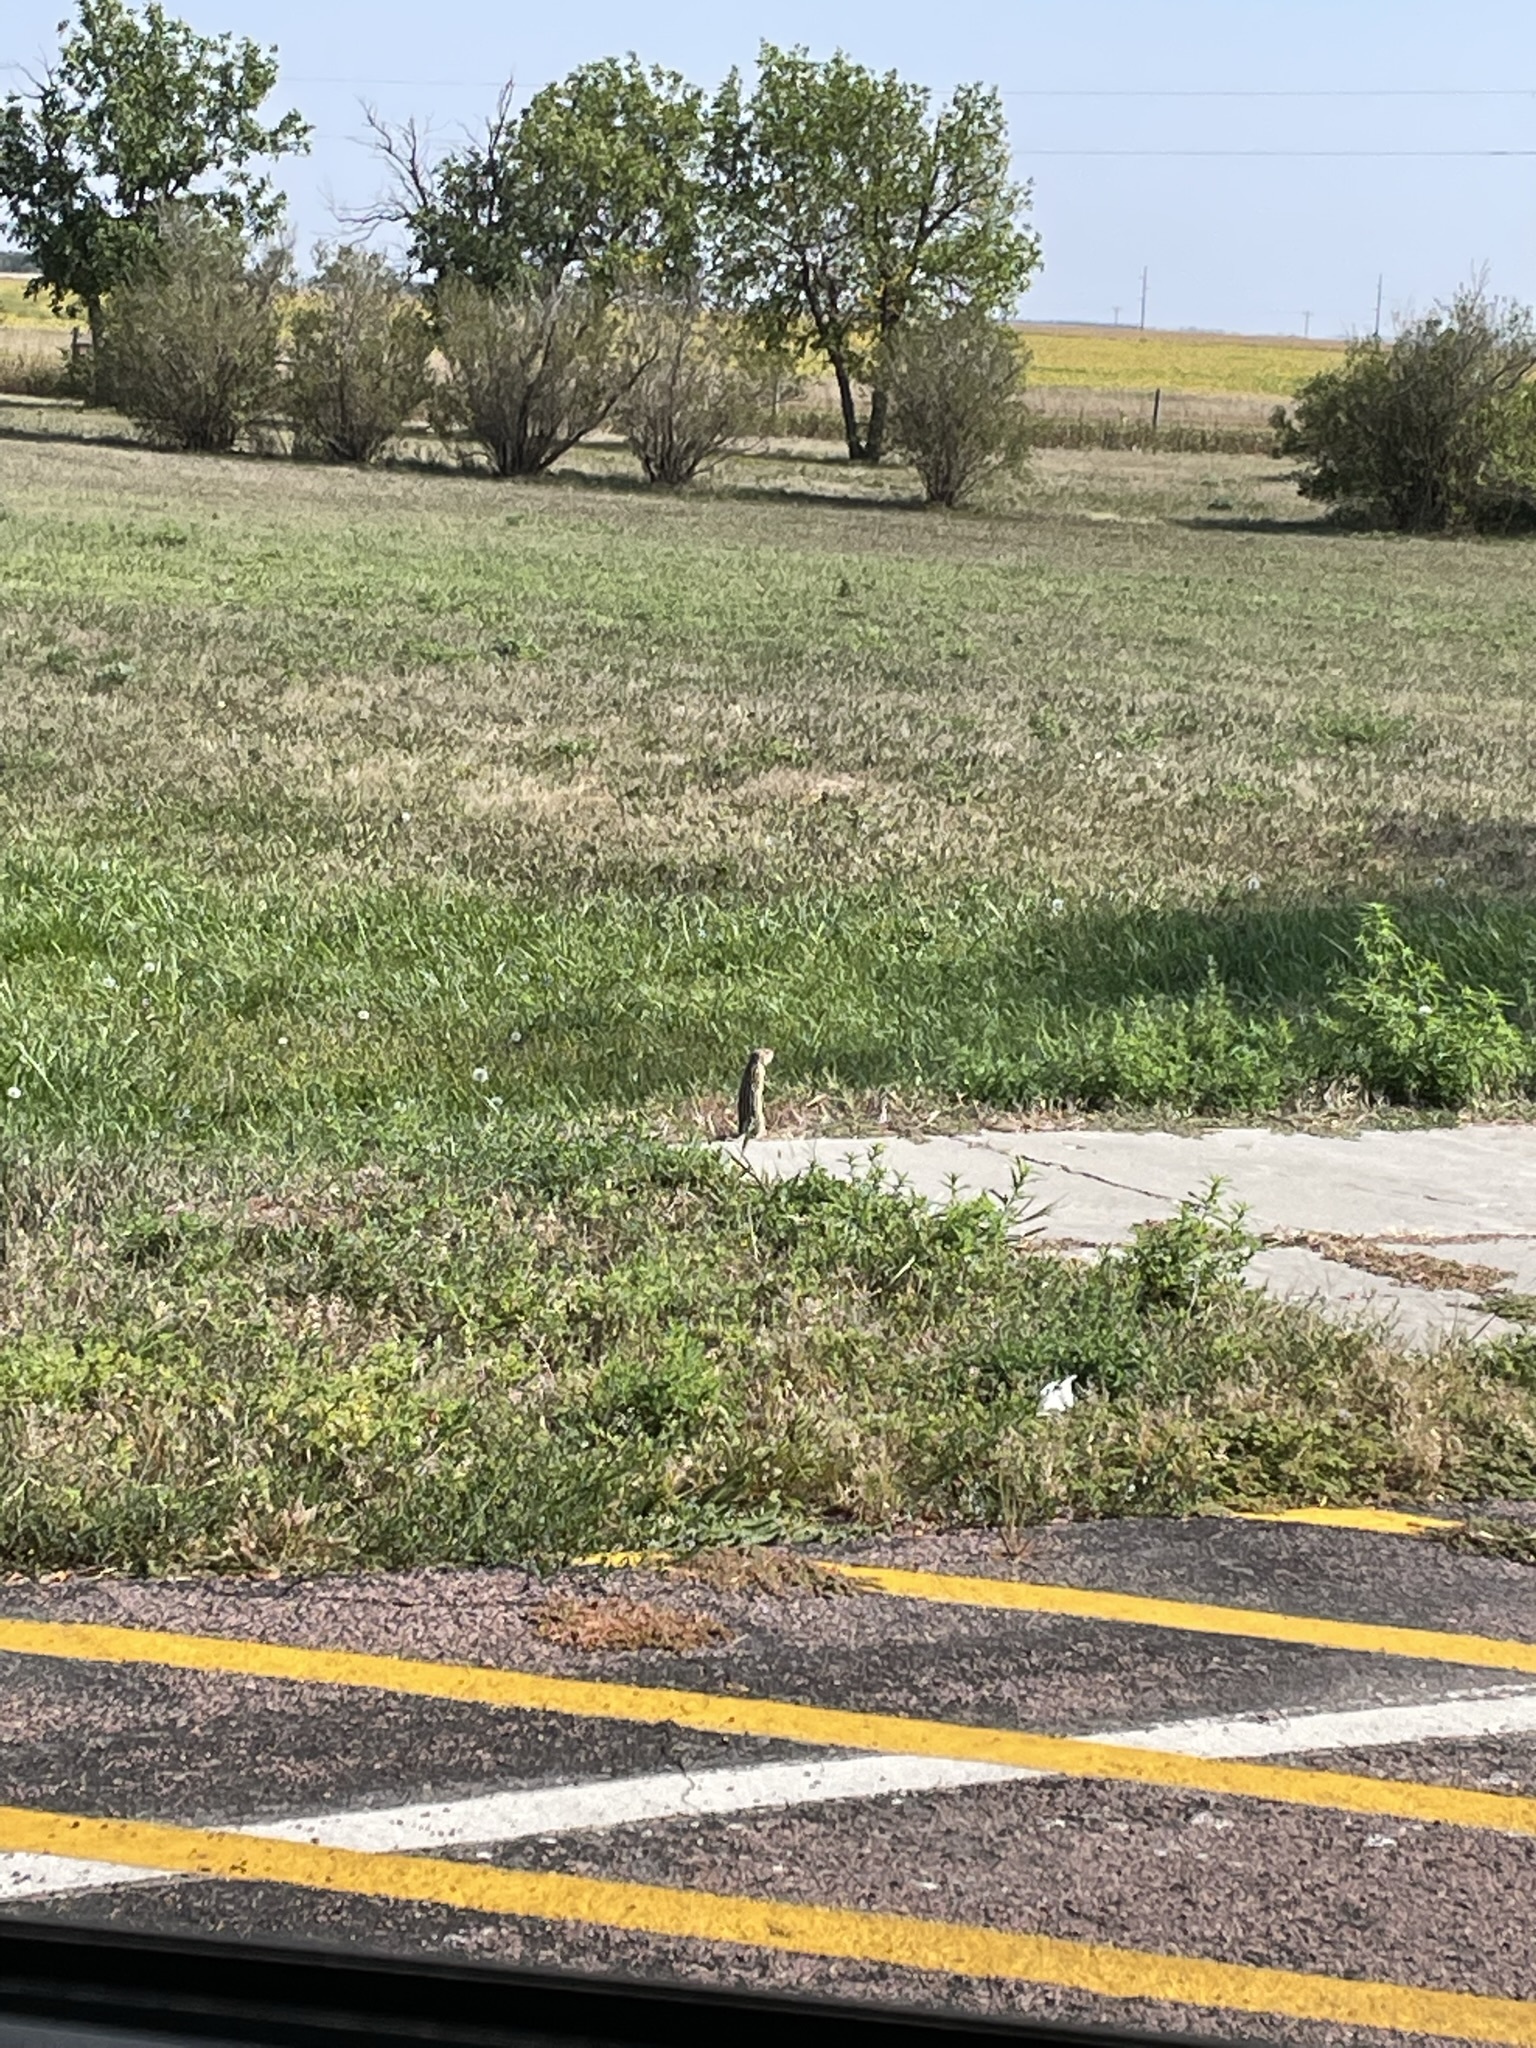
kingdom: Animalia
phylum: Chordata
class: Mammalia
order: Rodentia
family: Sciuridae
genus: Ictidomys
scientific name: Ictidomys tridecemlineatus
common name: Thirteen-lined ground squirrel
